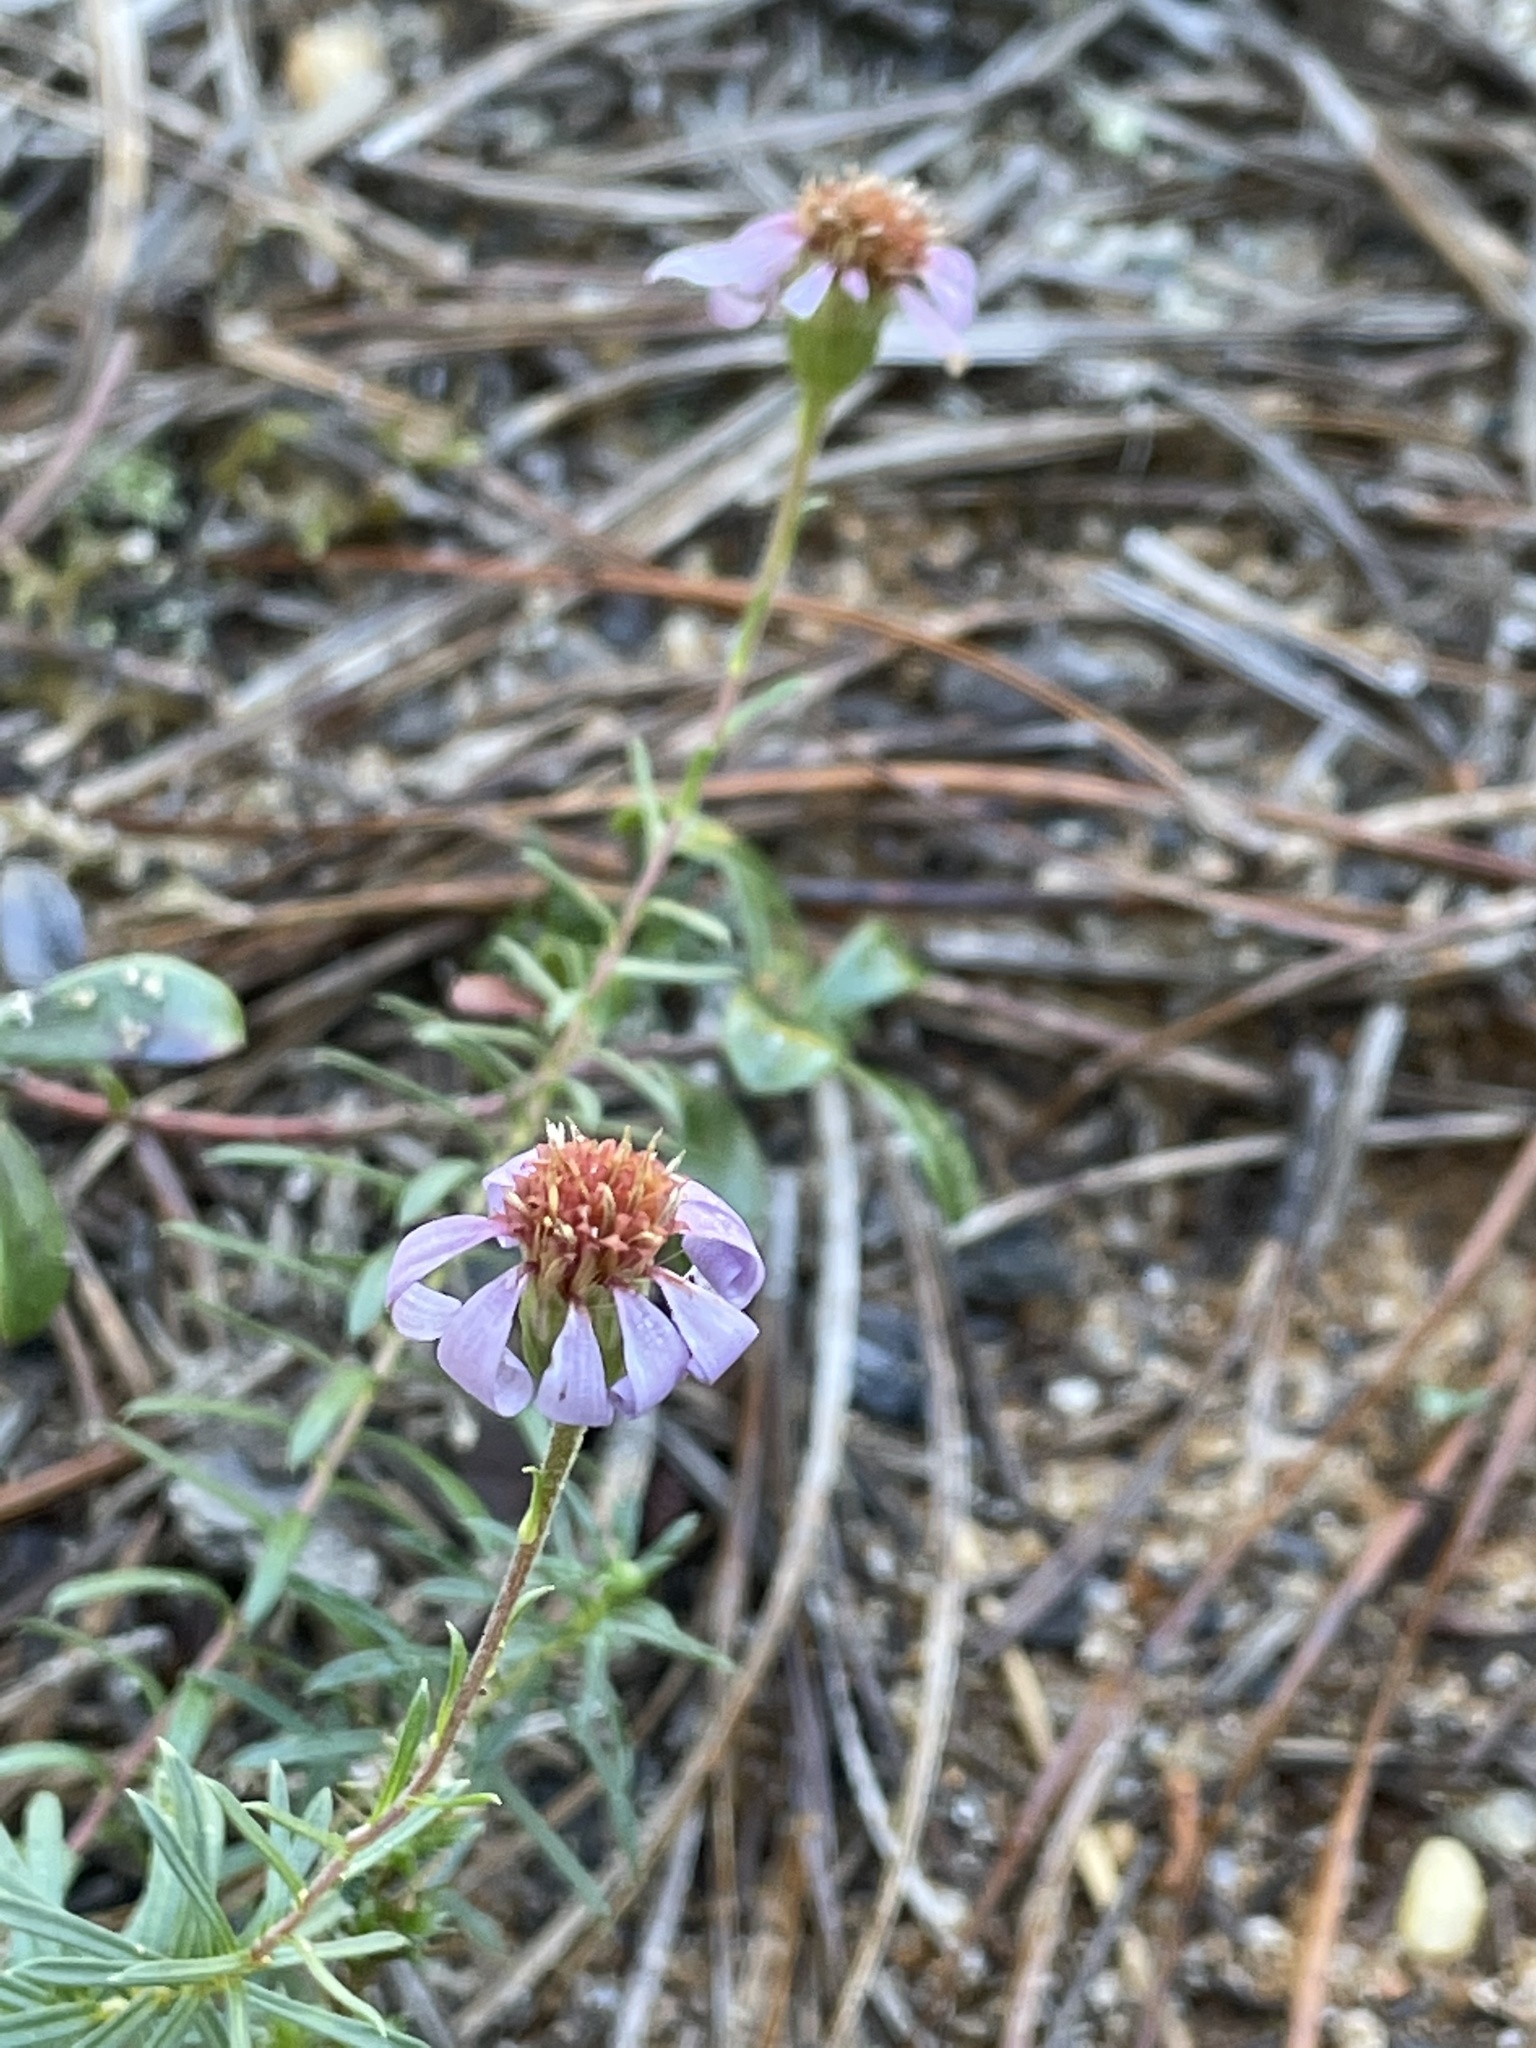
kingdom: Plantae
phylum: Tracheophyta
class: Magnoliopsida
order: Asterales
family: Asteraceae
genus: Ionactis
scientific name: Ionactis linariifolia
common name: Flax-leaf aster
